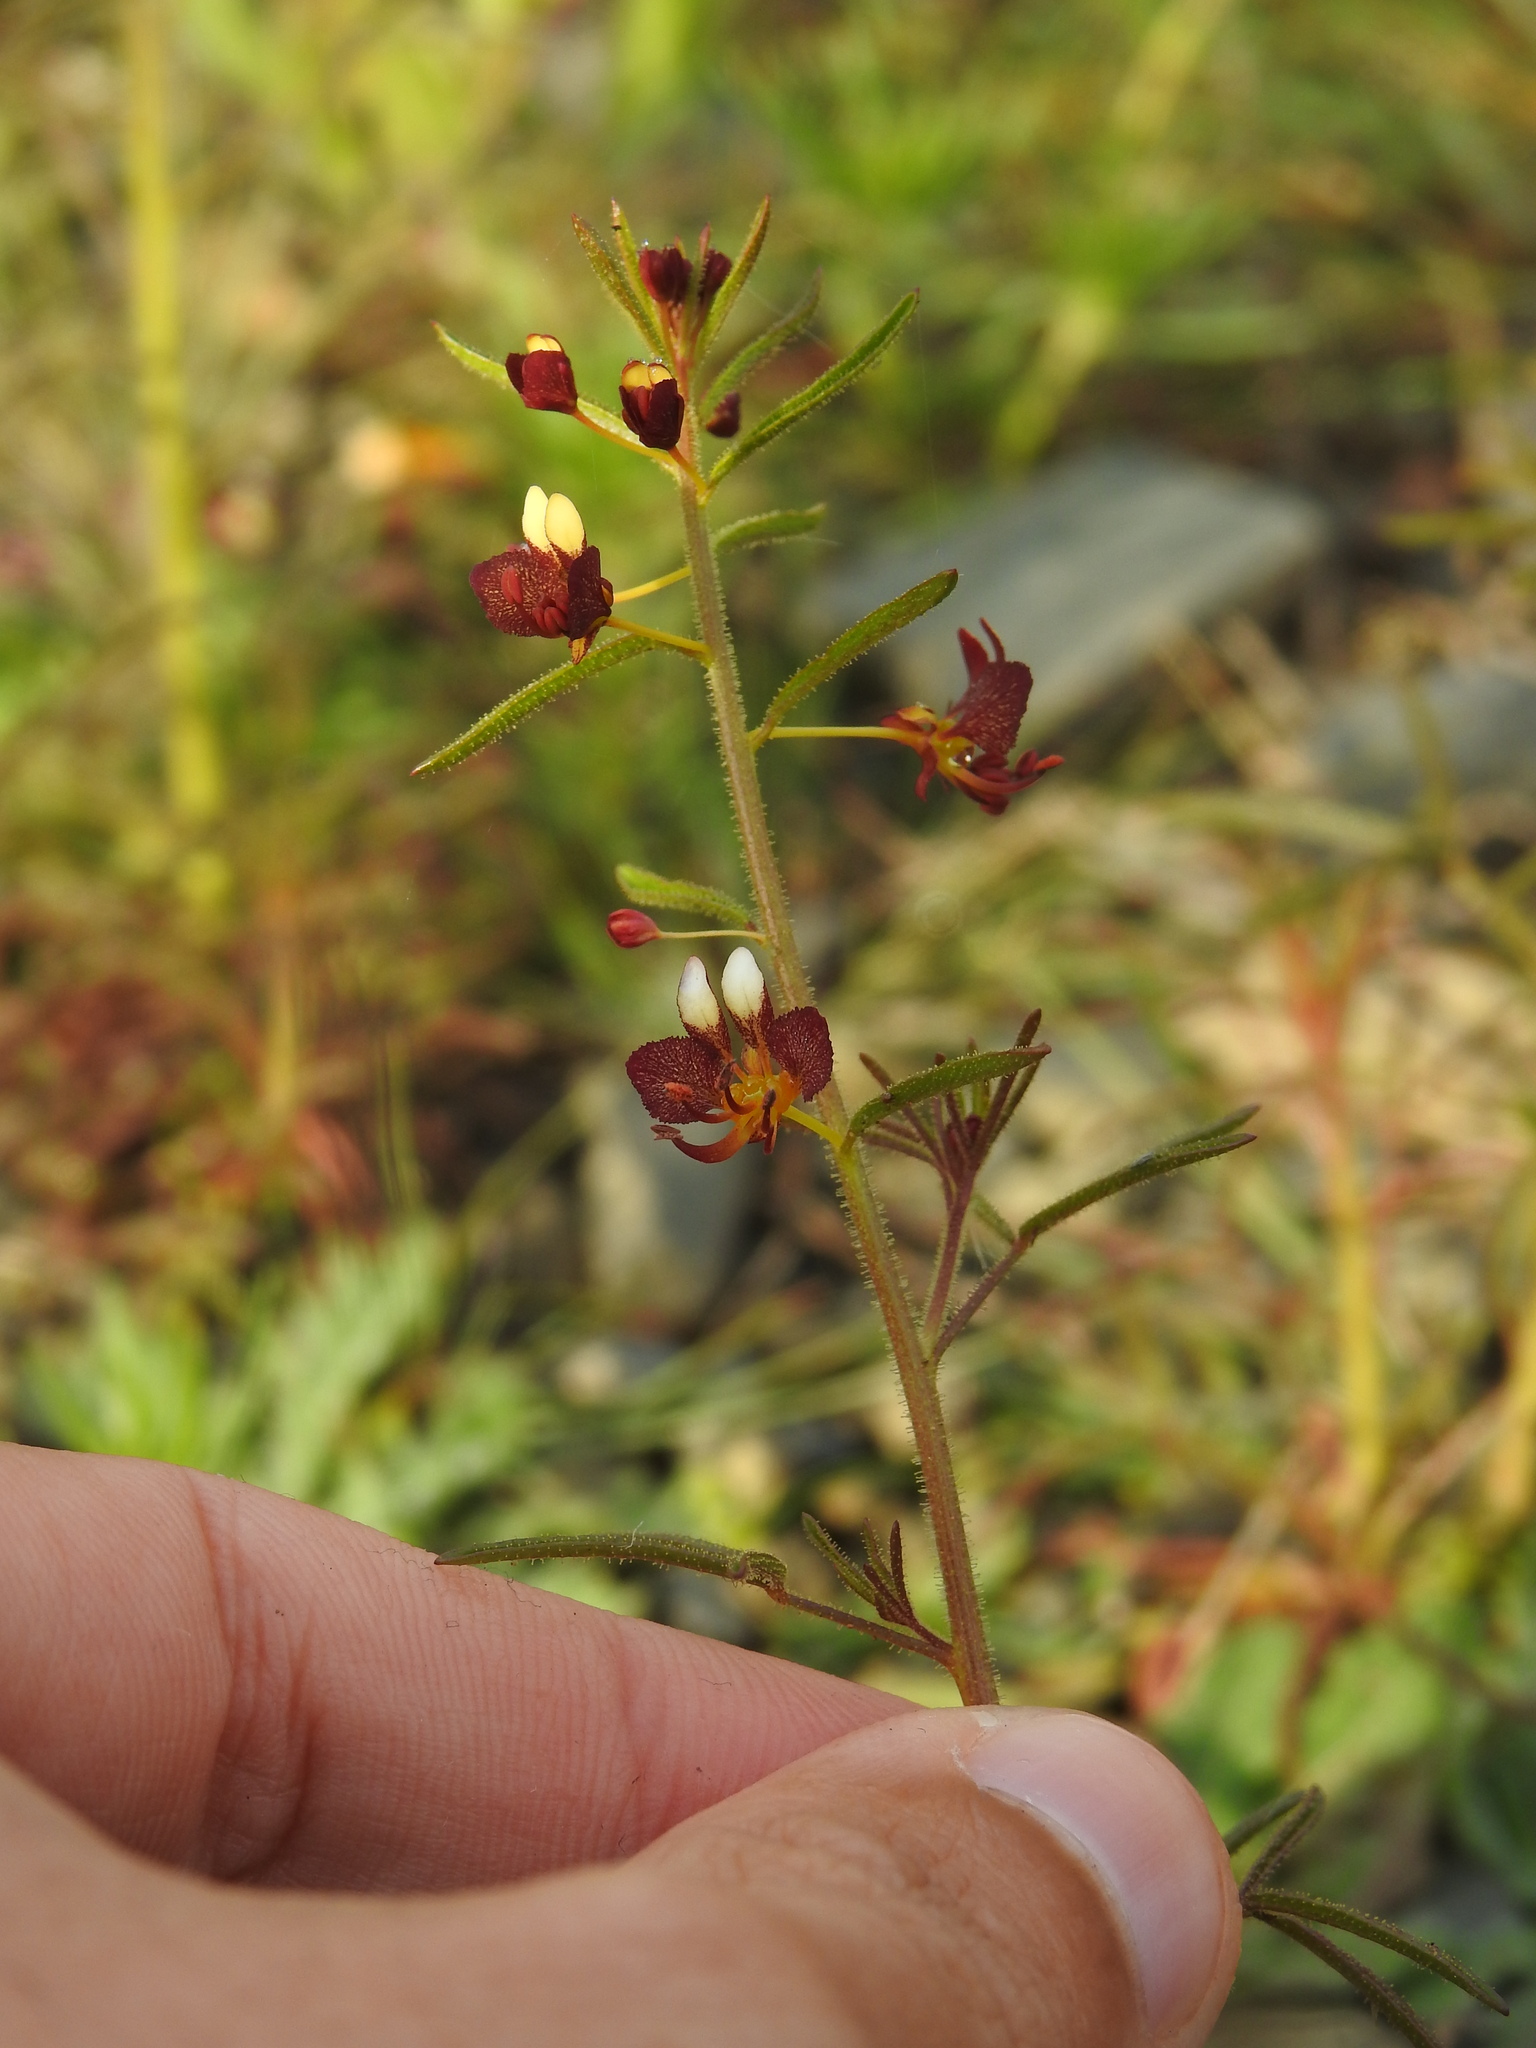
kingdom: Plantae
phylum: Tracheophyta
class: Magnoliopsida
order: Brassicales
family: Cleomaceae
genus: Cleome
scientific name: Cleome violacea
